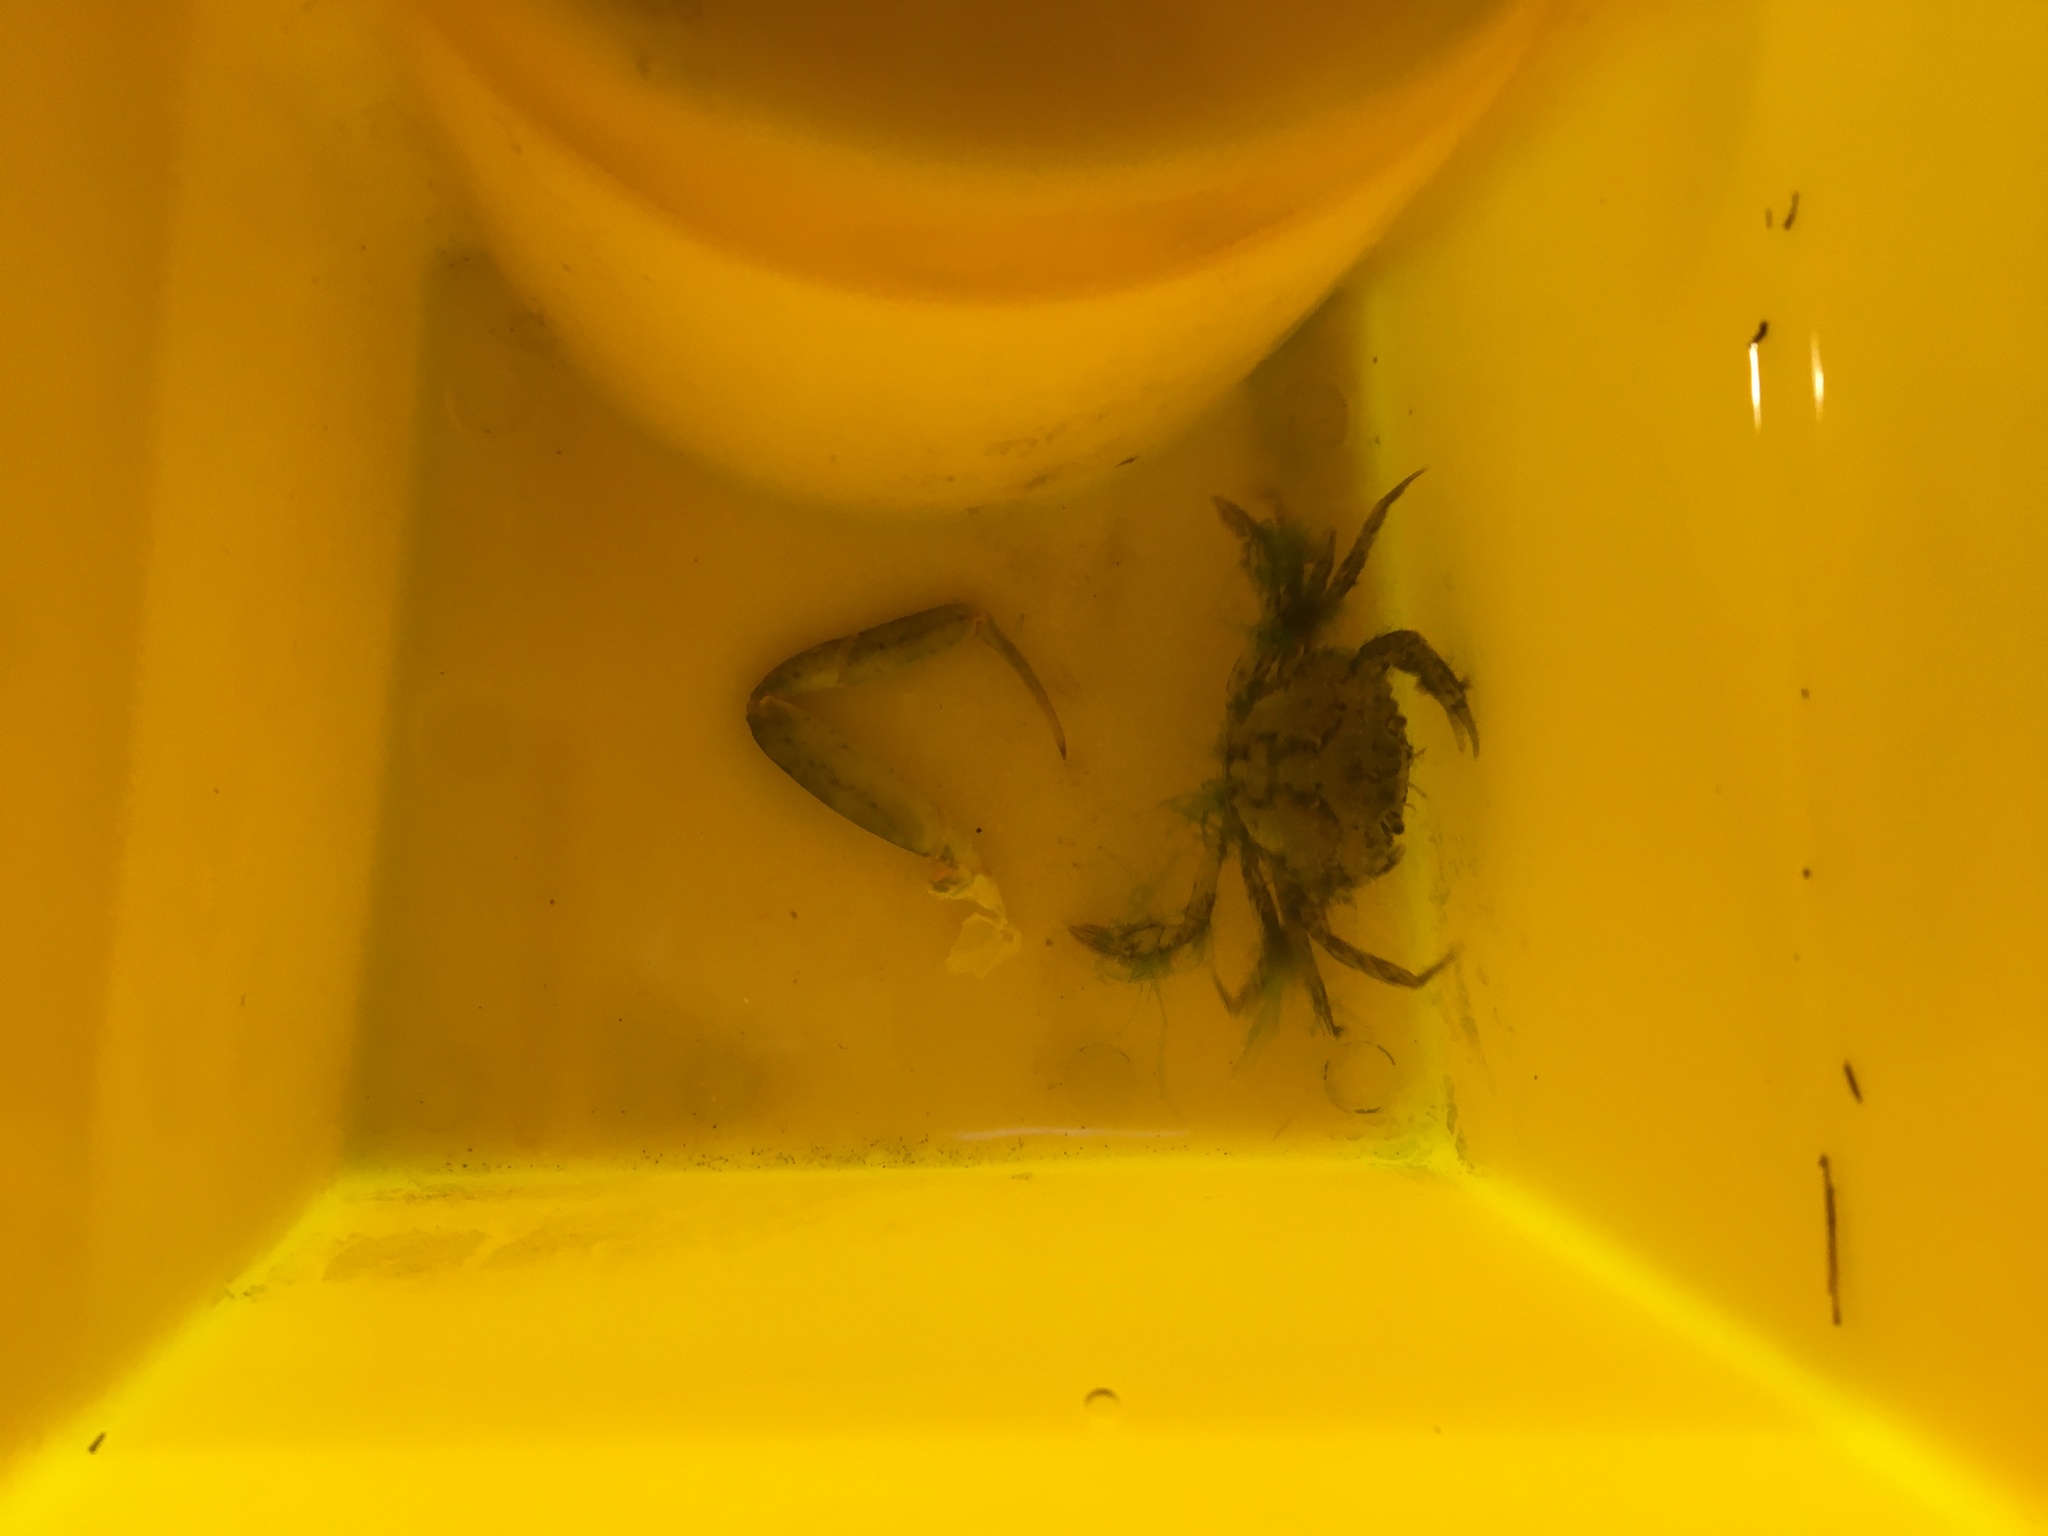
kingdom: Animalia
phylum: Arthropoda
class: Malacostraca
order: Decapoda
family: Carcinidae
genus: Carcinus
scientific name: Carcinus maenas
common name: European green crab
